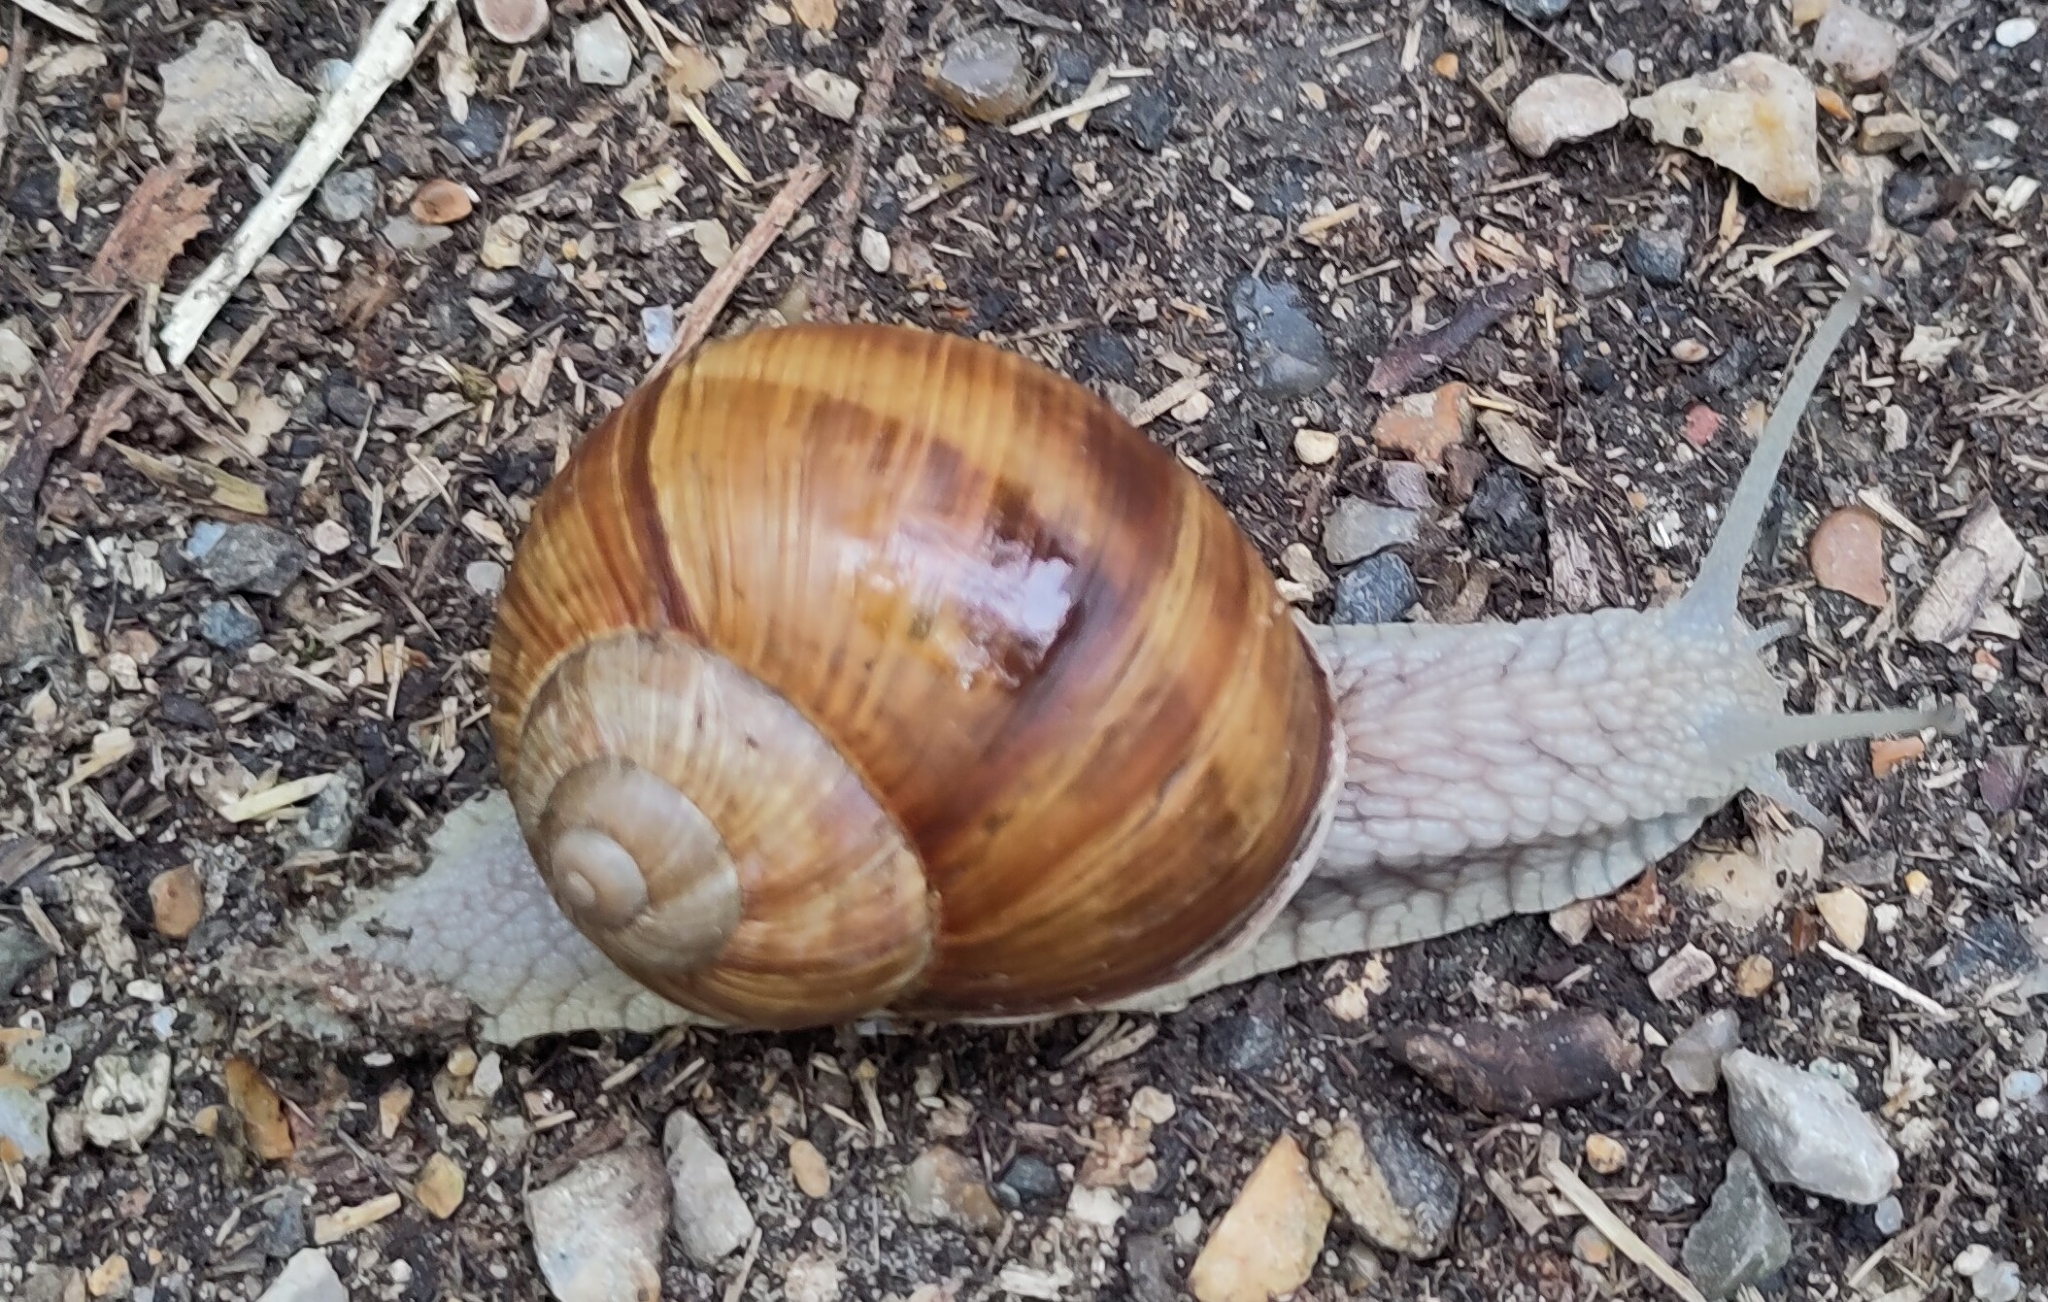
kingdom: Animalia
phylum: Mollusca
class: Gastropoda
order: Stylommatophora
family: Helicidae
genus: Helix
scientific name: Helix pomatia
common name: Roman snail
